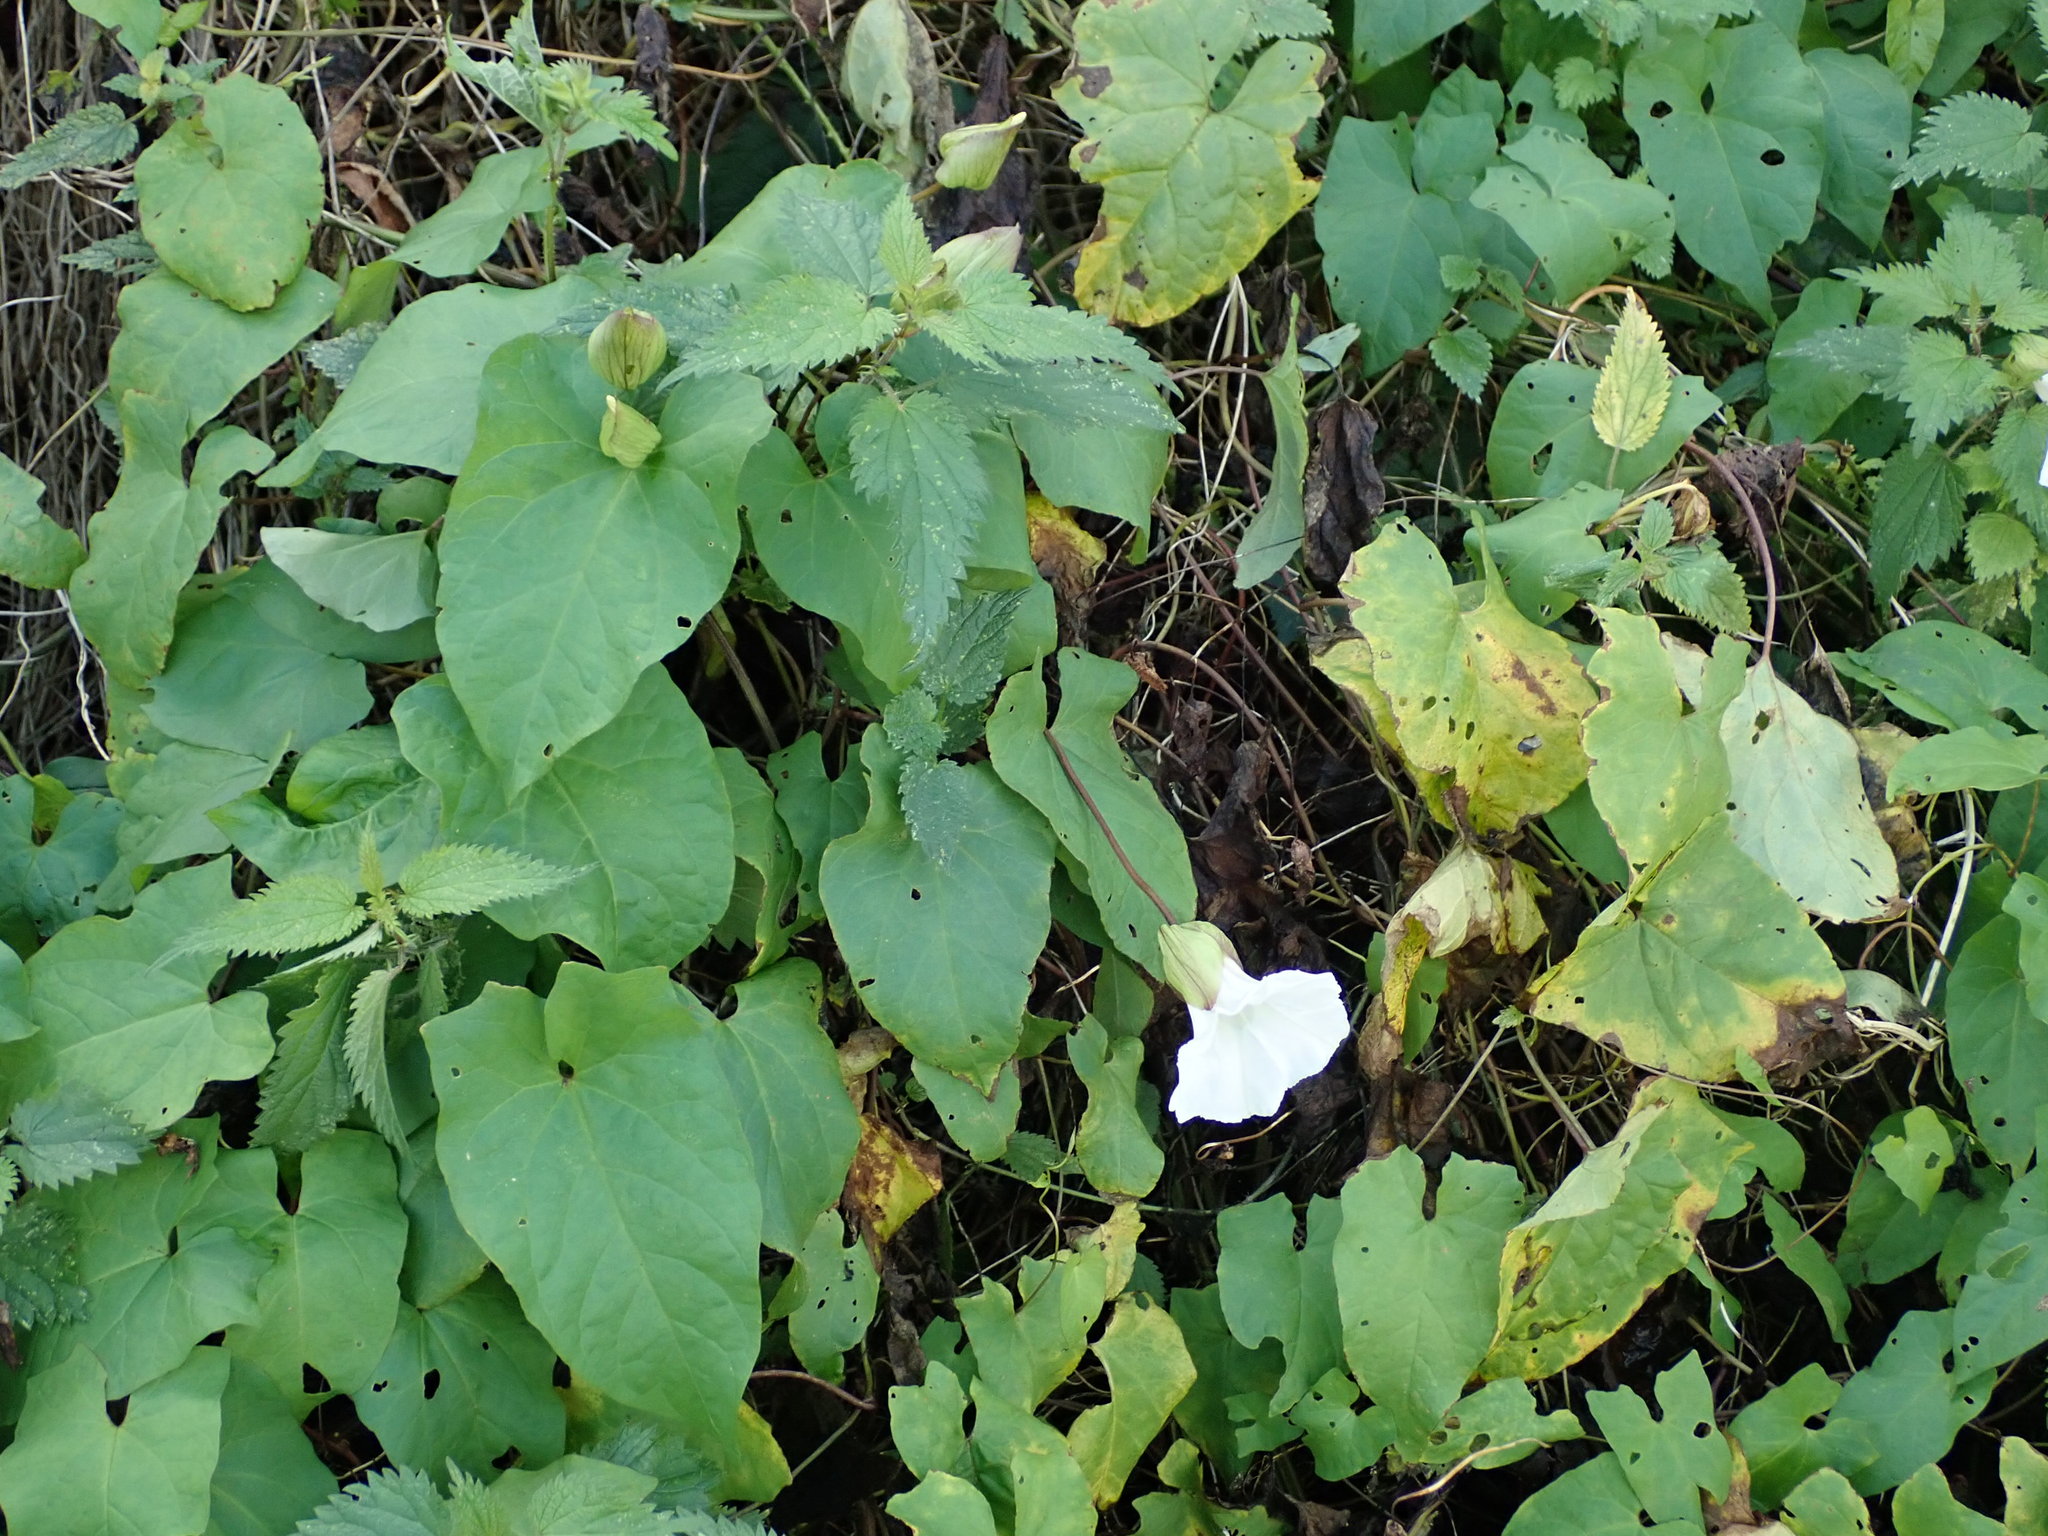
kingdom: Plantae
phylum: Tracheophyta
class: Magnoliopsida
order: Solanales
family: Convolvulaceae
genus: Calystegia
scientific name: Calystegia silvatica
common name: Large bindweed
